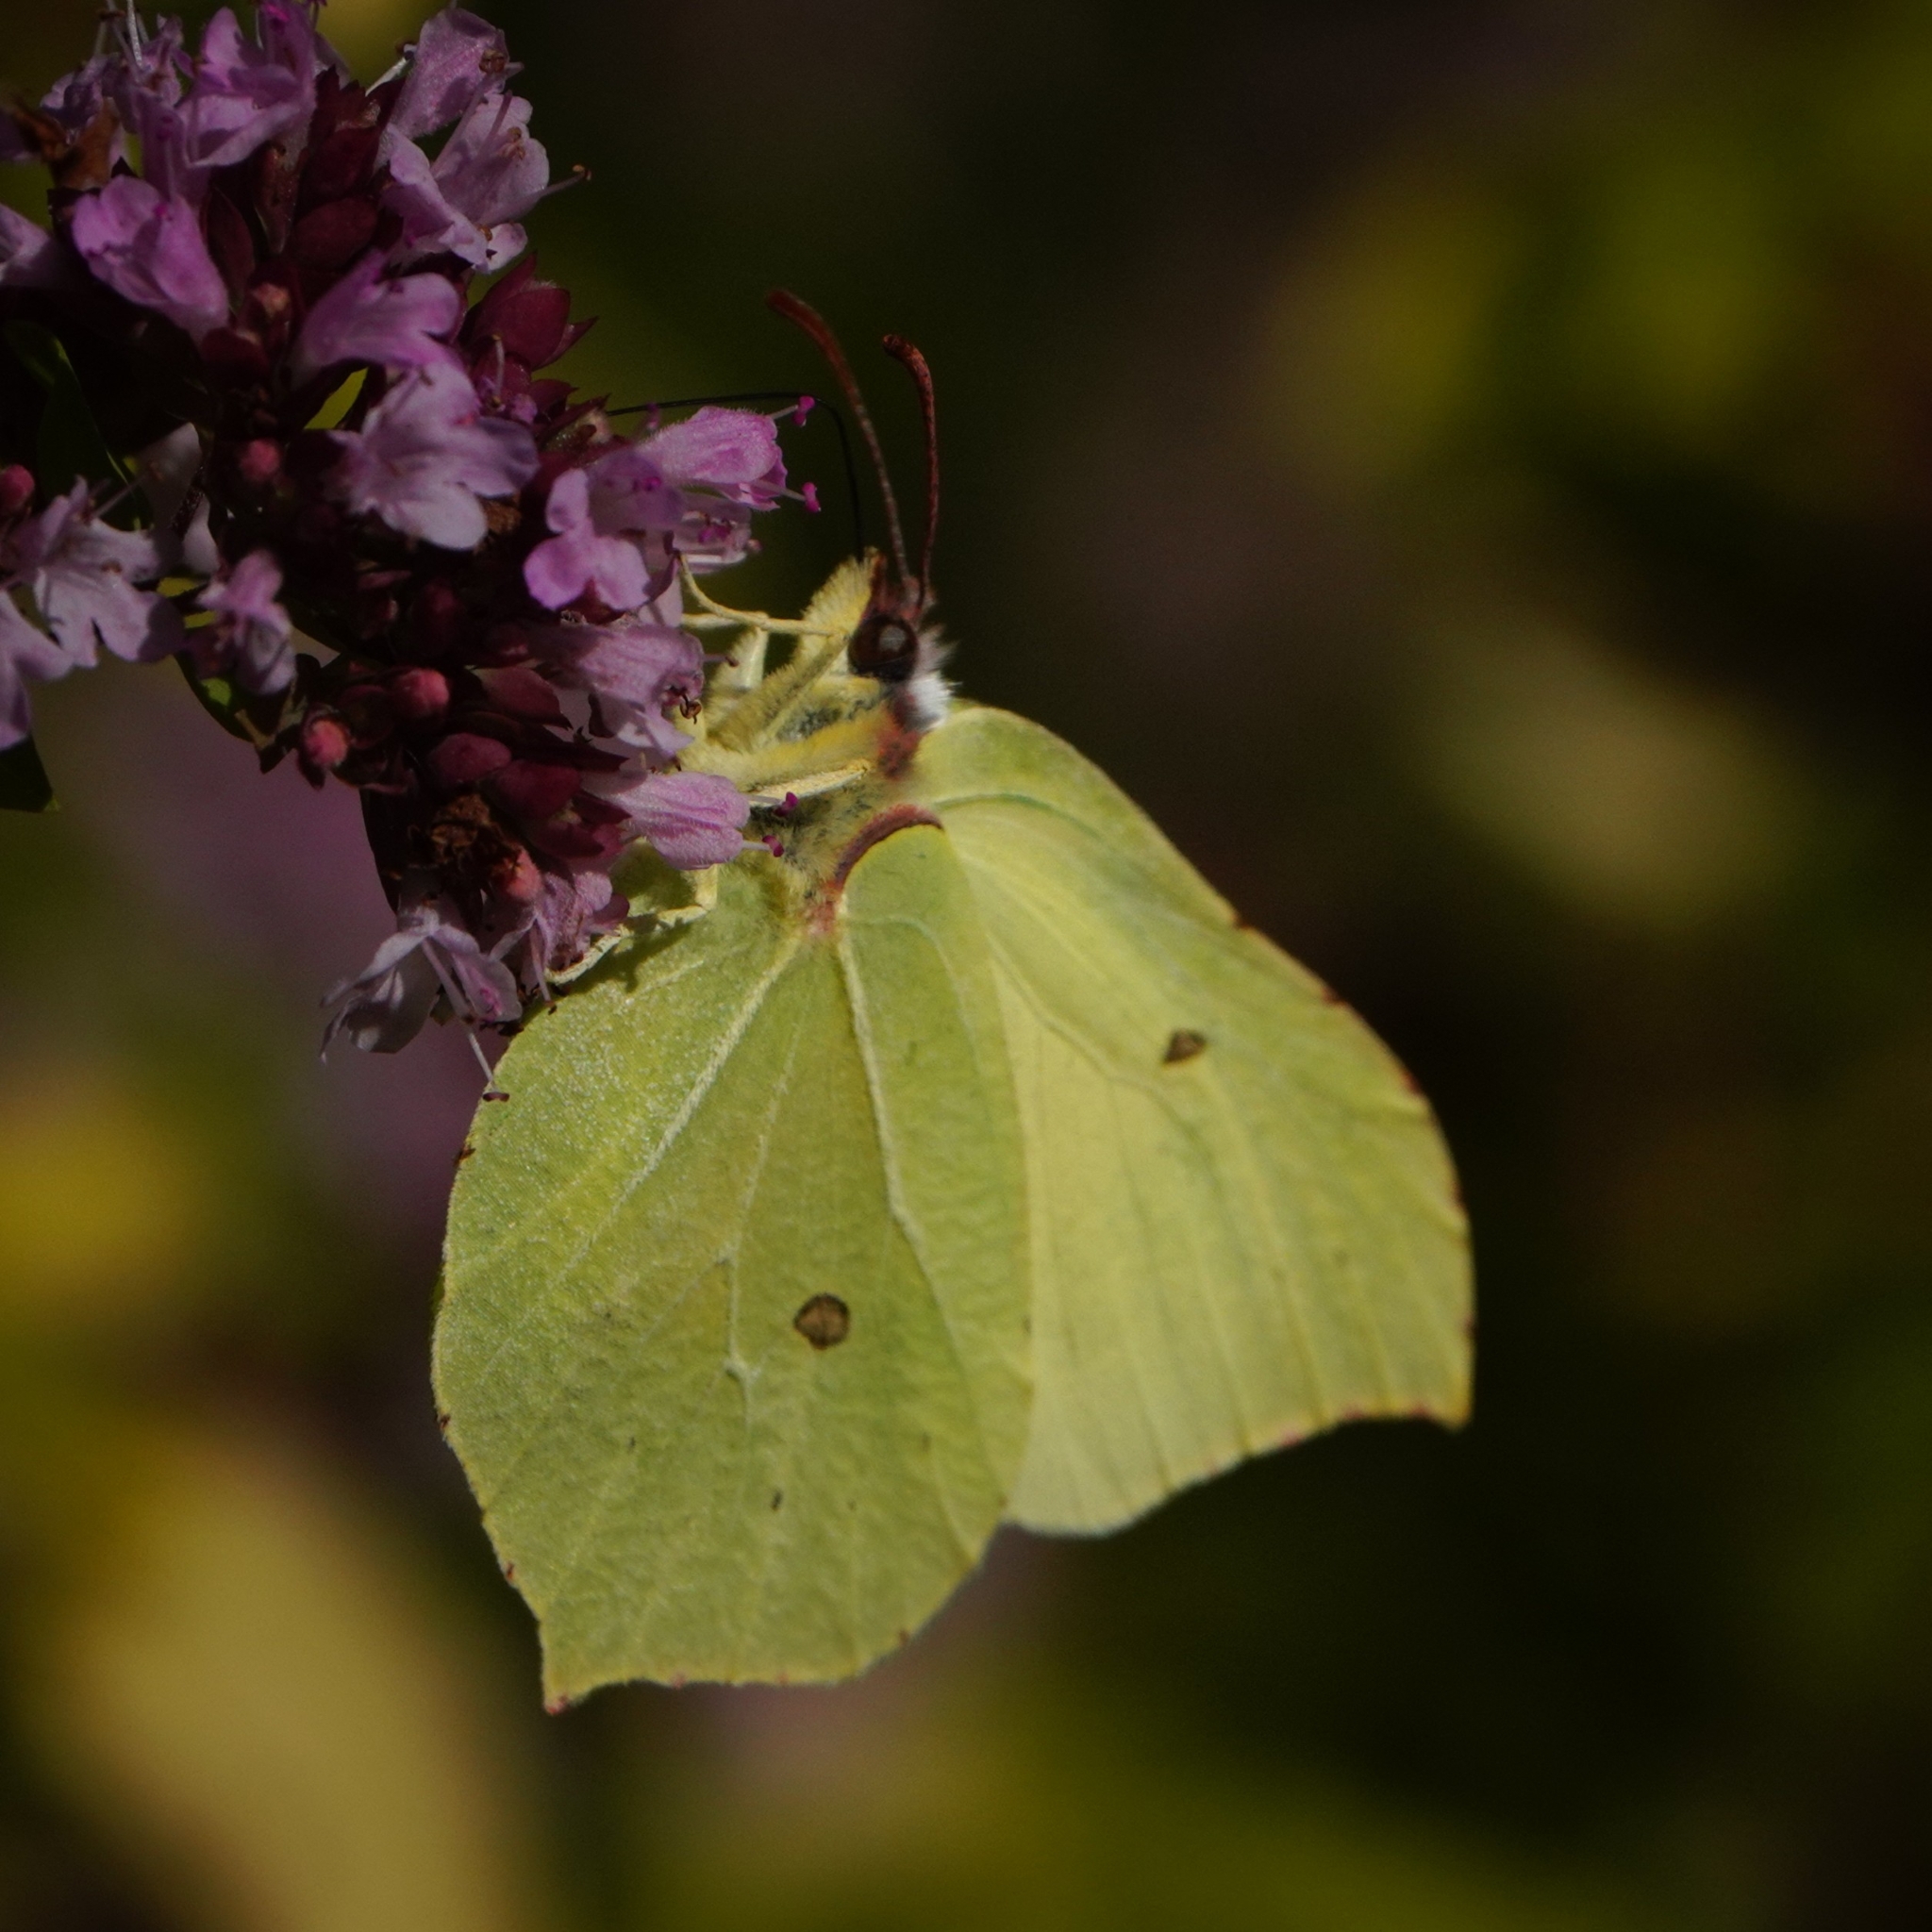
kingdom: Animalia
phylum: Arthropoda
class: Insecta
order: Lepidoptera
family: Pieridae
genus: Gonepteryx
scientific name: Gonepteryx rhamni
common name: Brimstone
